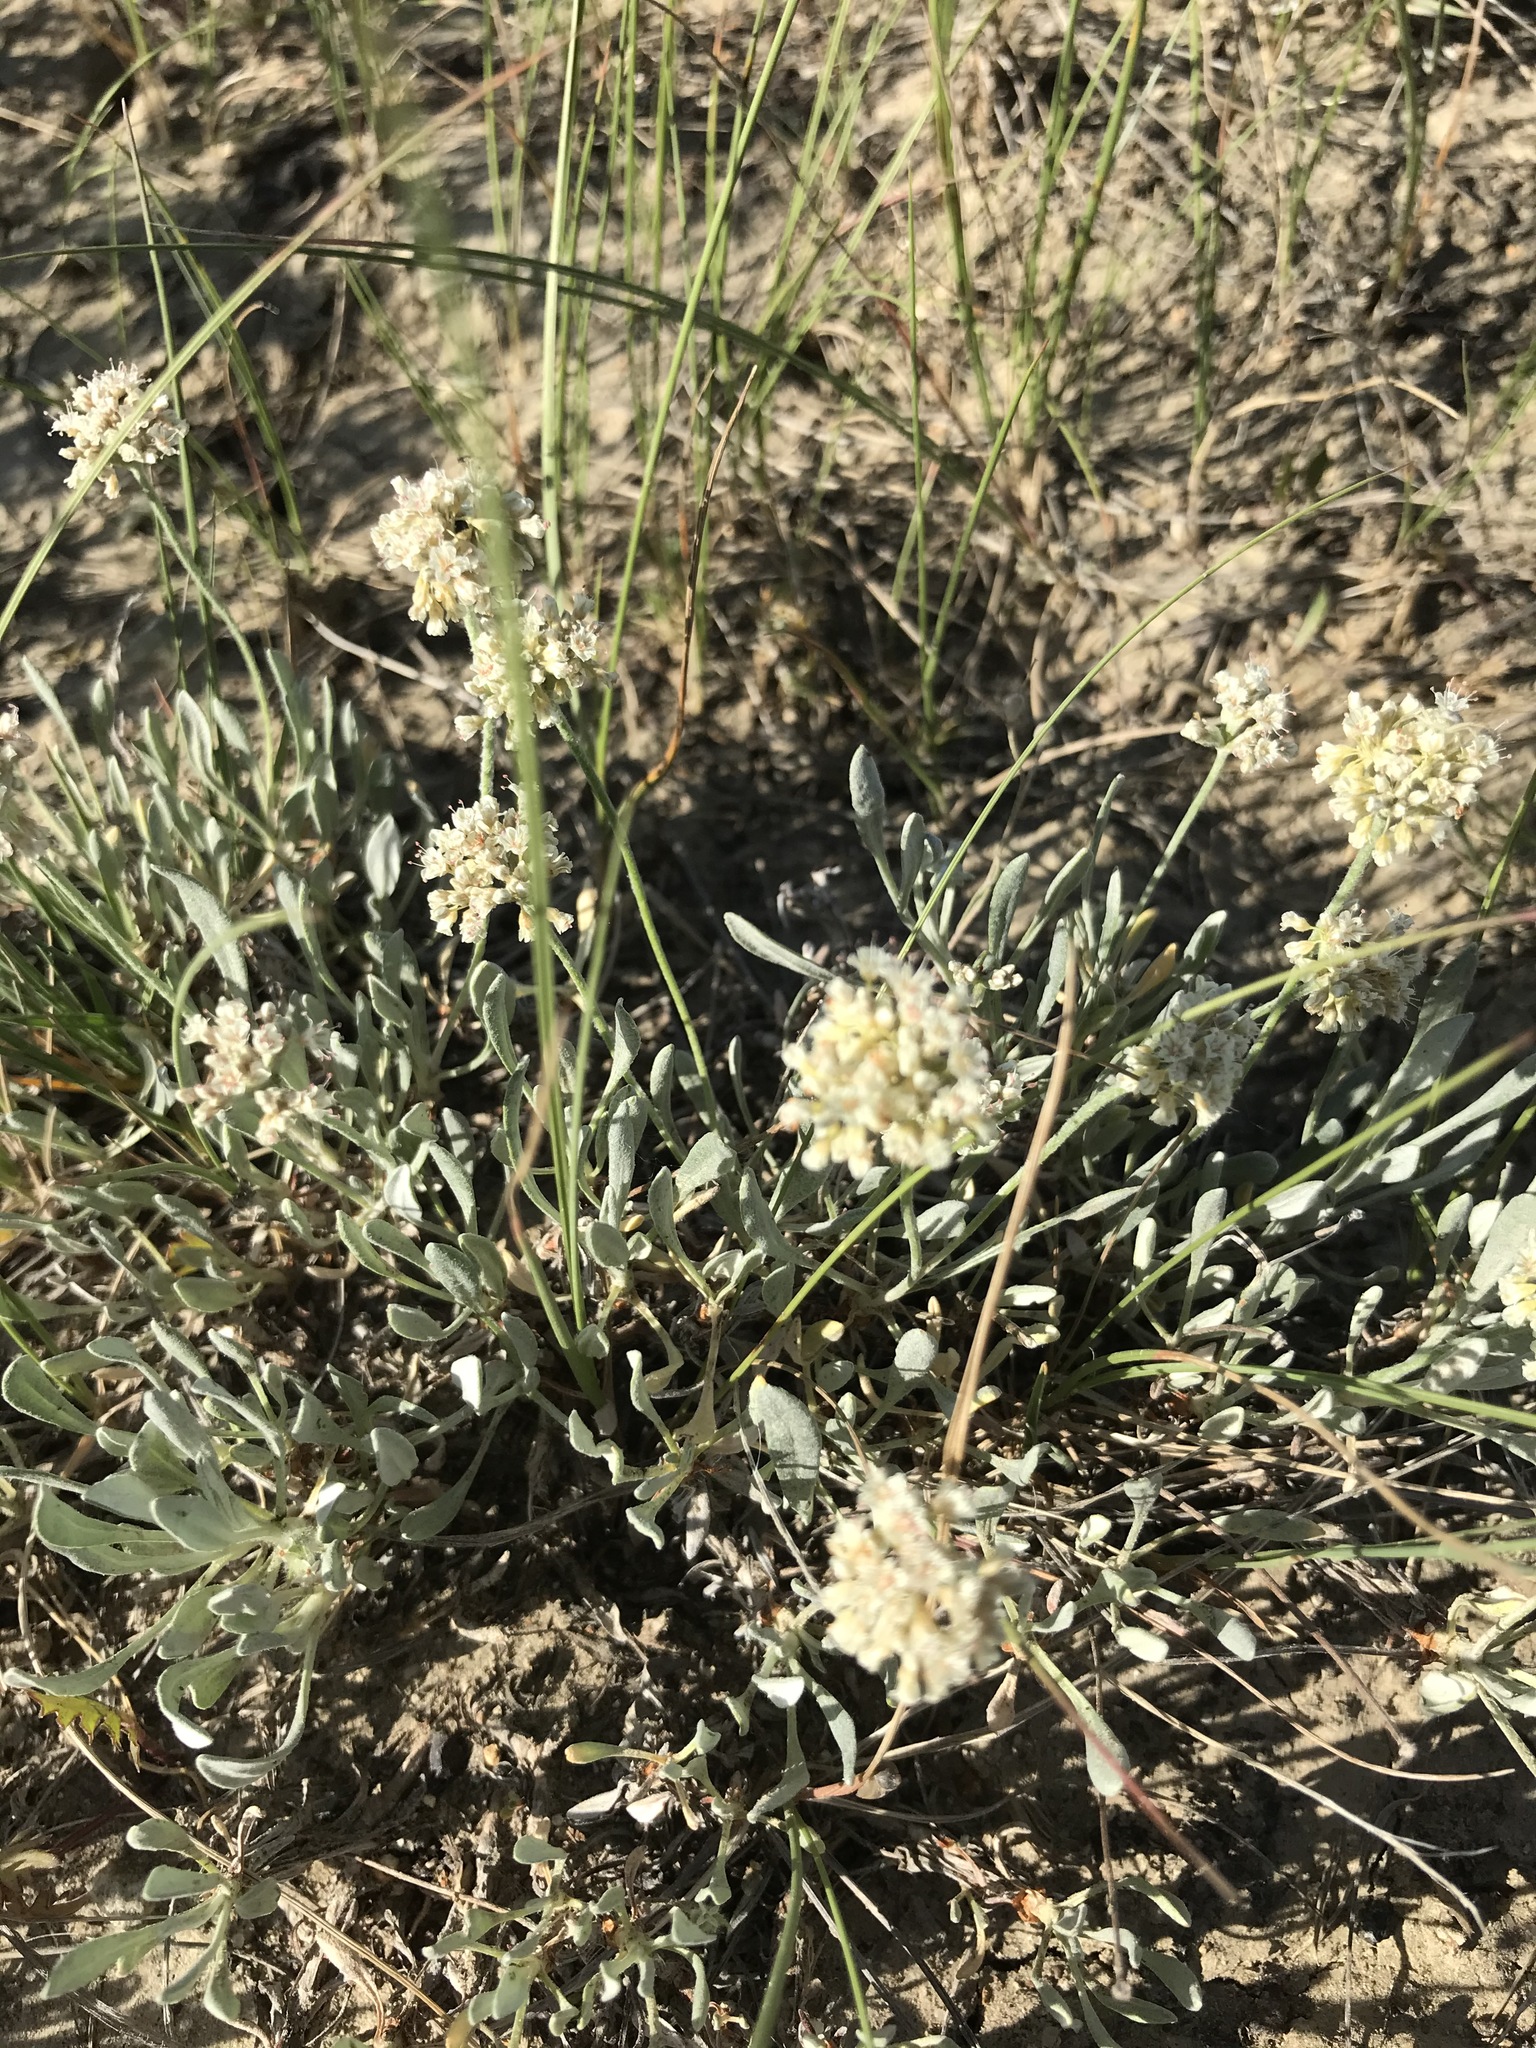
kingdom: Plantae
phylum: Tracheophyta
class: Magnoliopsida
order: Caryophyllales
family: Polygonaceae
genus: Eriogonum
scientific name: Eriogonum pauciflorum
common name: Few-flower wild buckwheat
